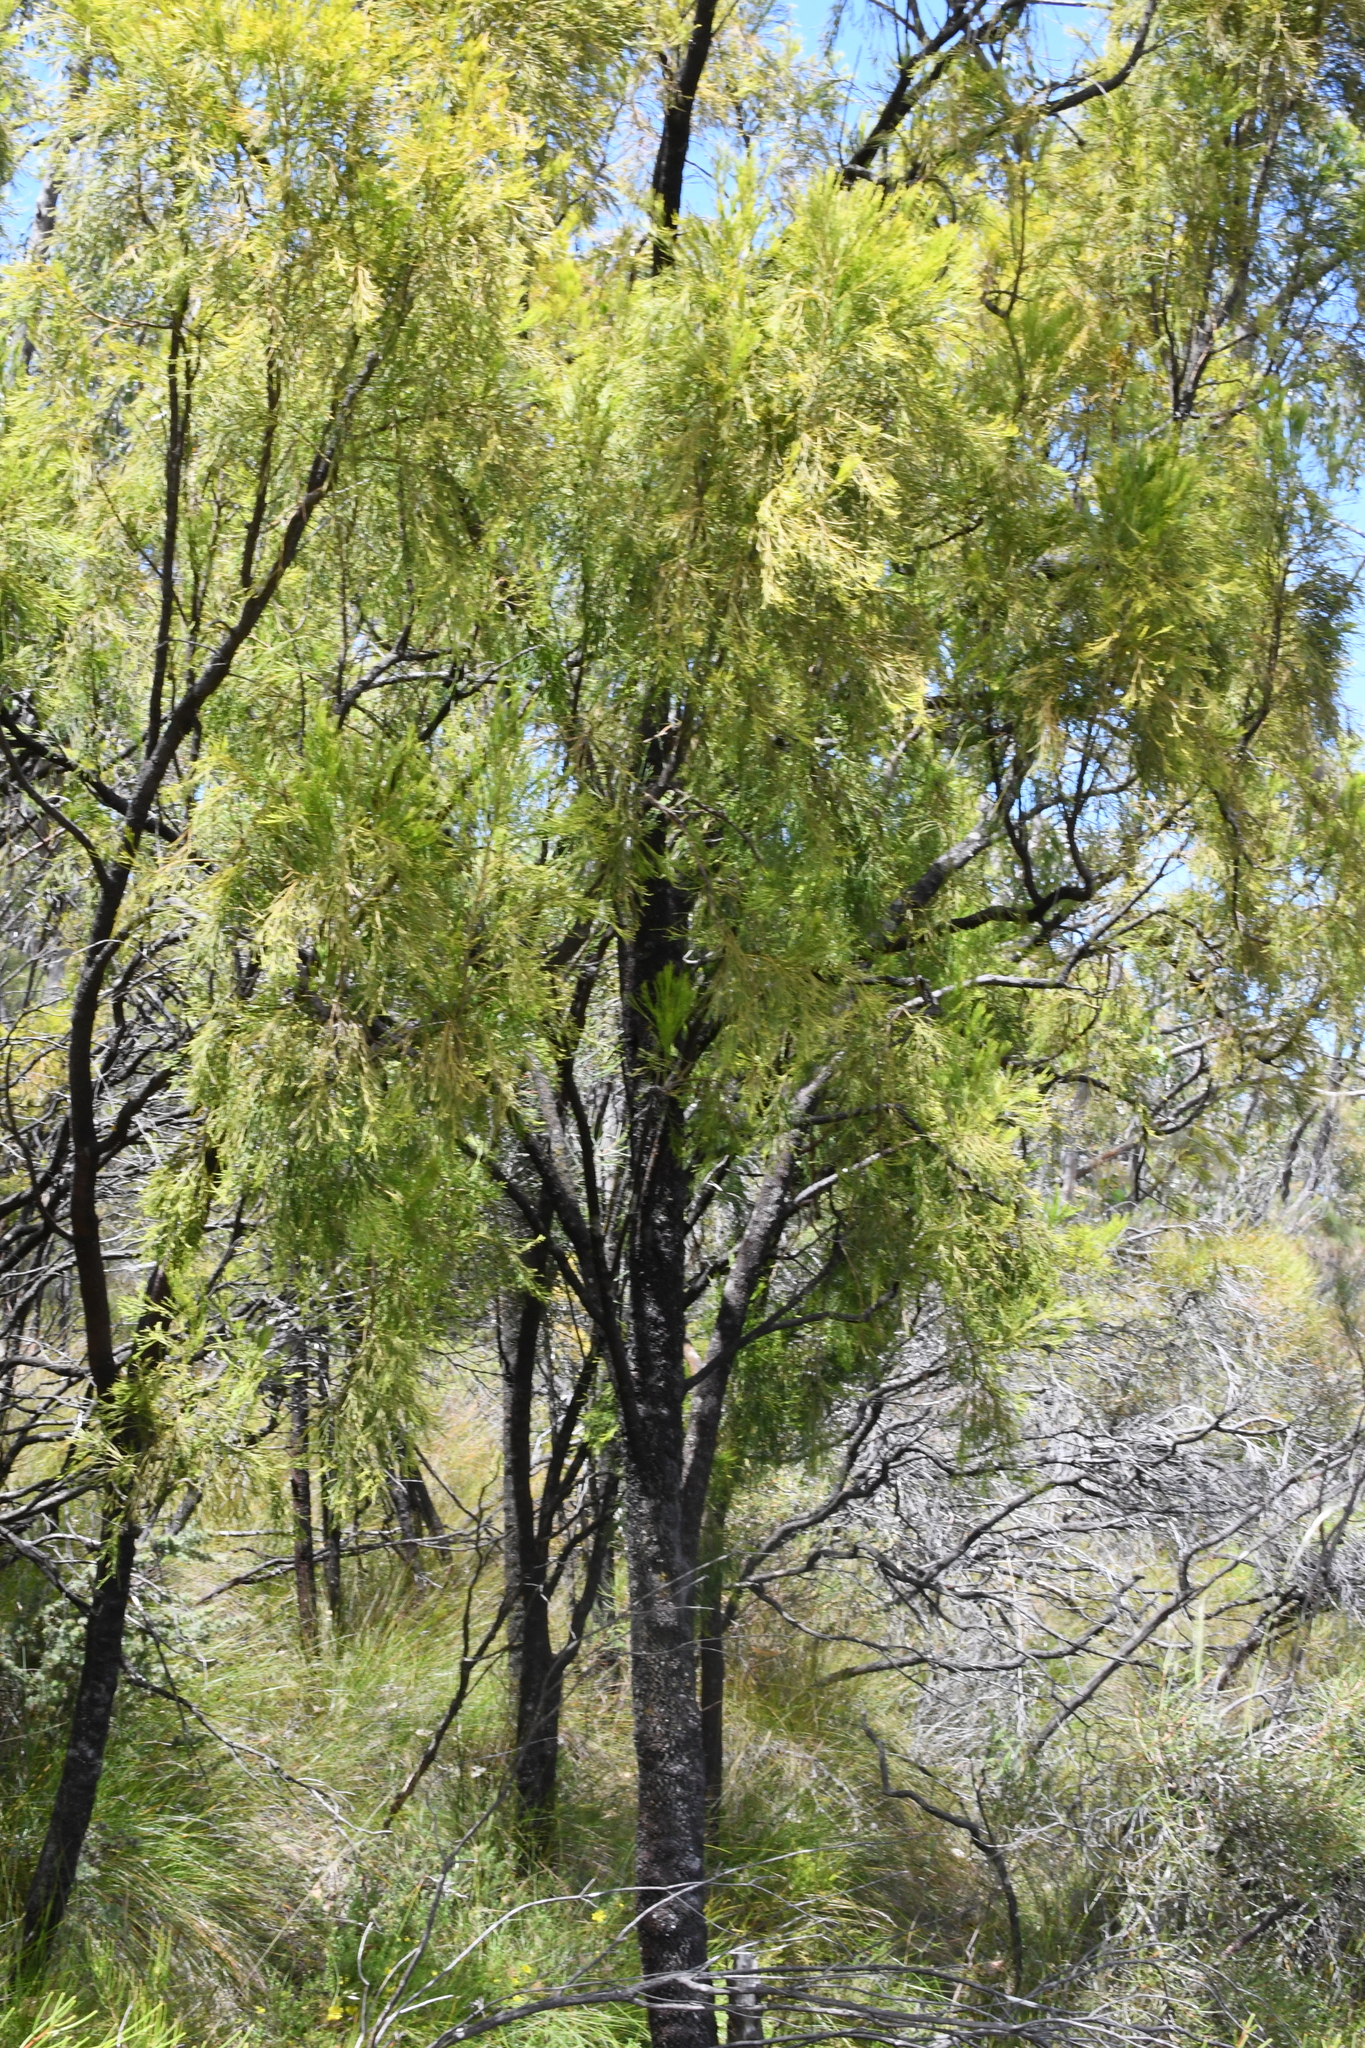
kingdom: Plantae
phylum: Tracheophyta
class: Magnoliopsida
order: Santalales
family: Santalaceae
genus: Exocarpos
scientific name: Exocarpos cupressiformis
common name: Cherry ballart
